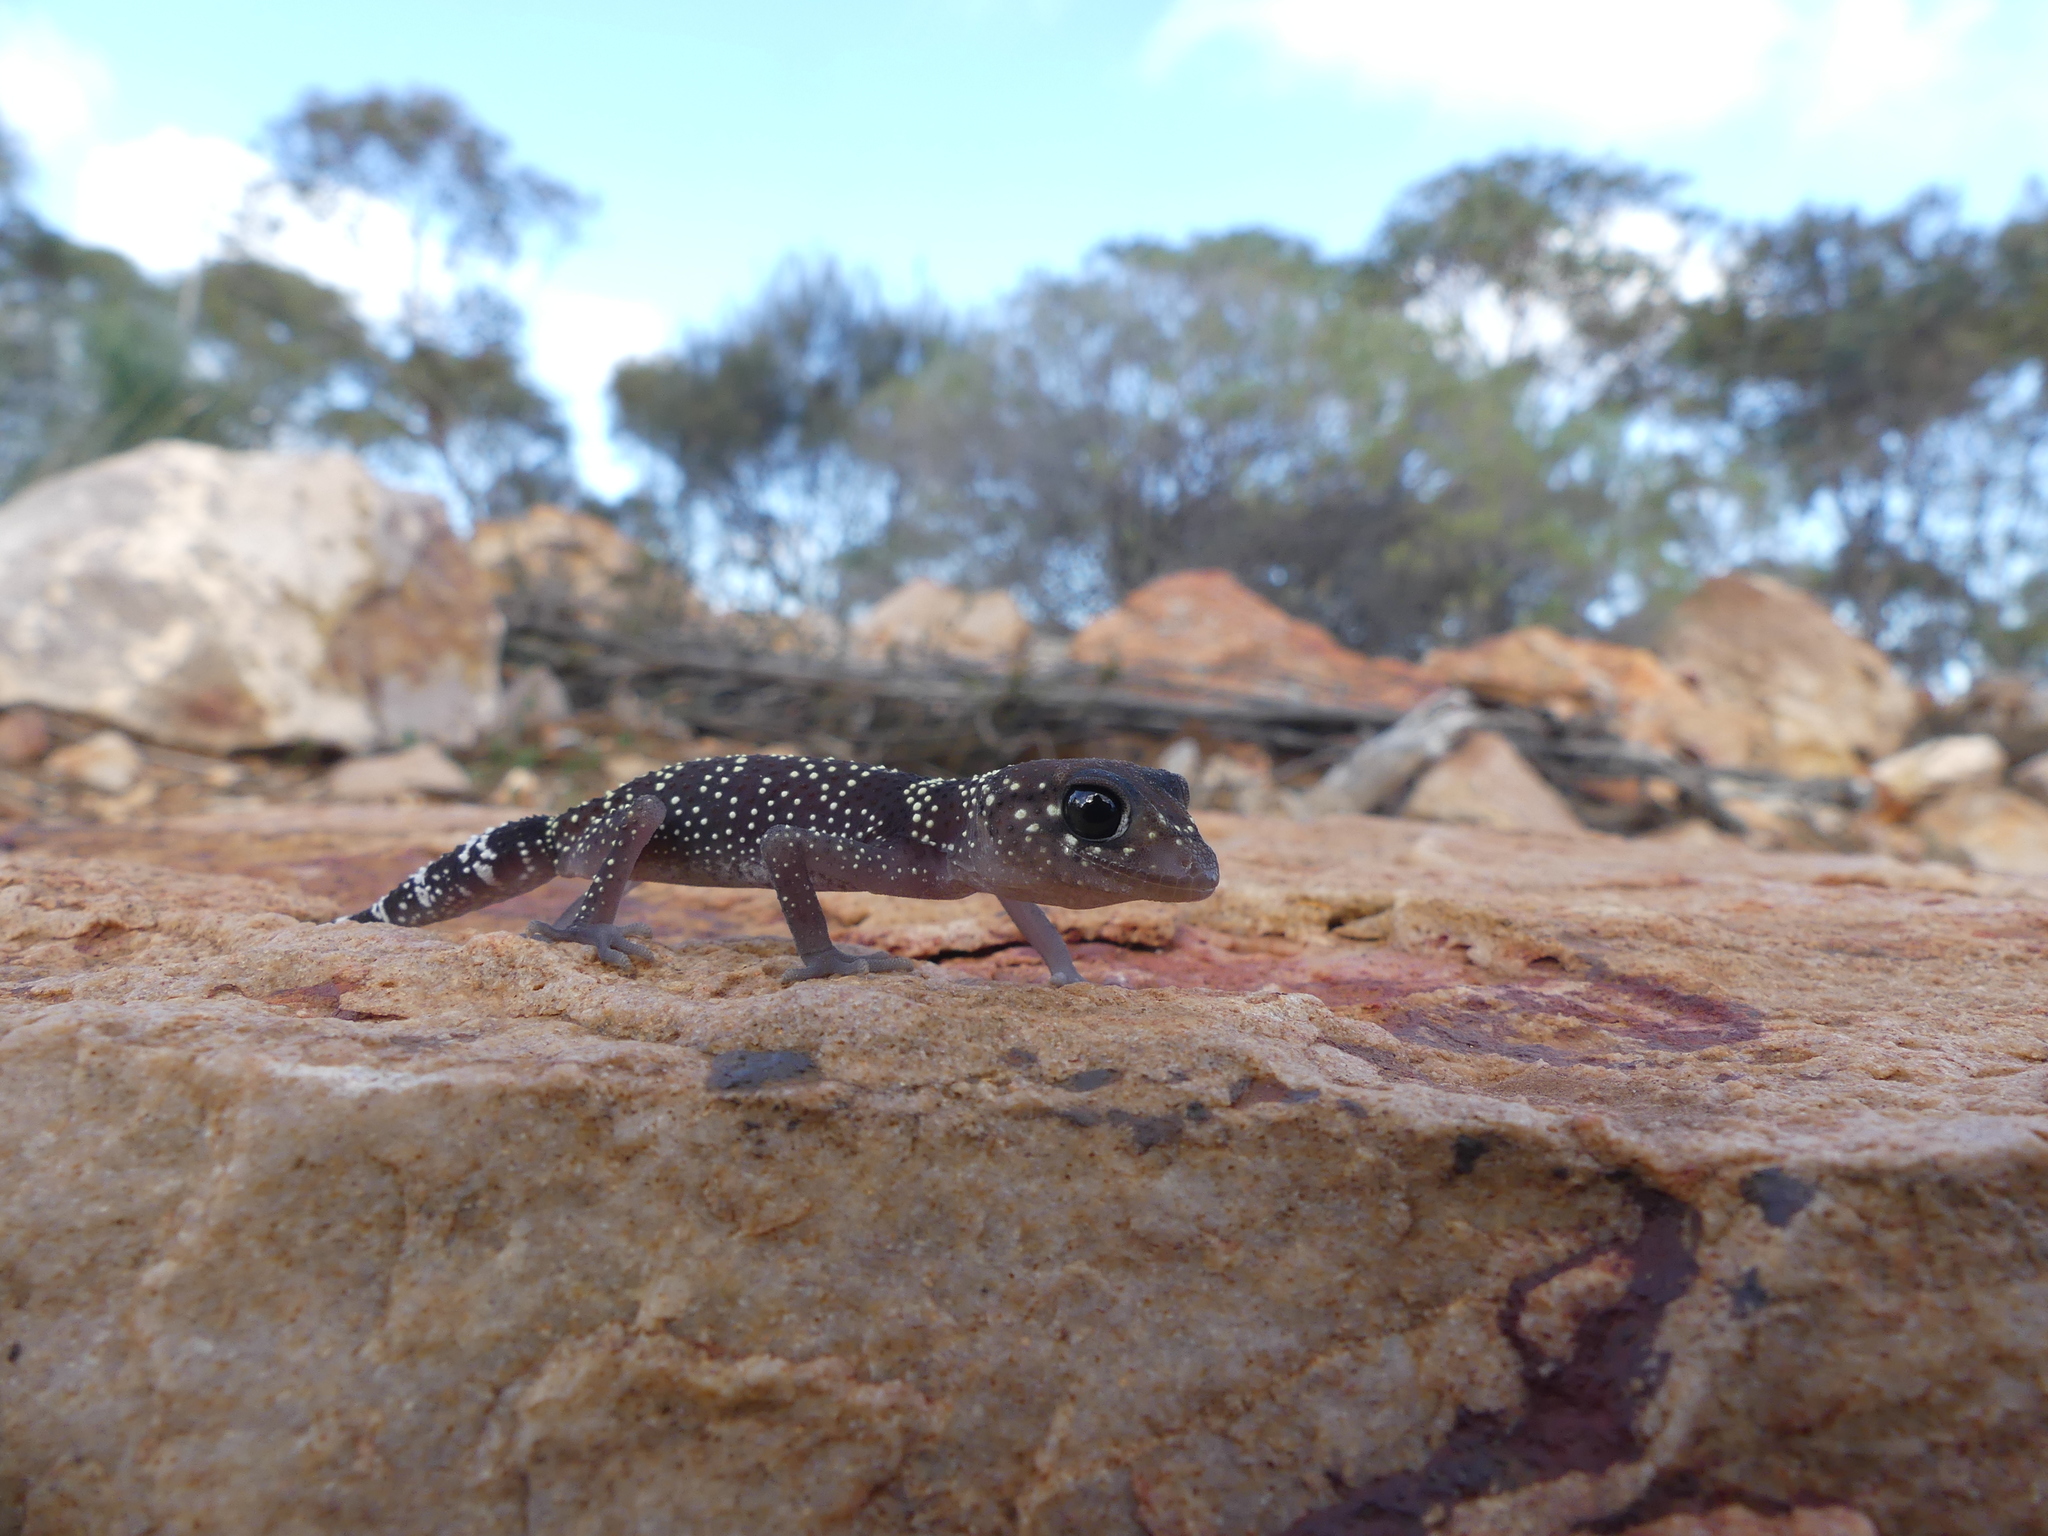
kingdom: Animalia
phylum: Chordata
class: Squamata
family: Carphodactylidae
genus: Underwoodisaurus
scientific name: Underwoodisaurus milii
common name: Barking gecko
